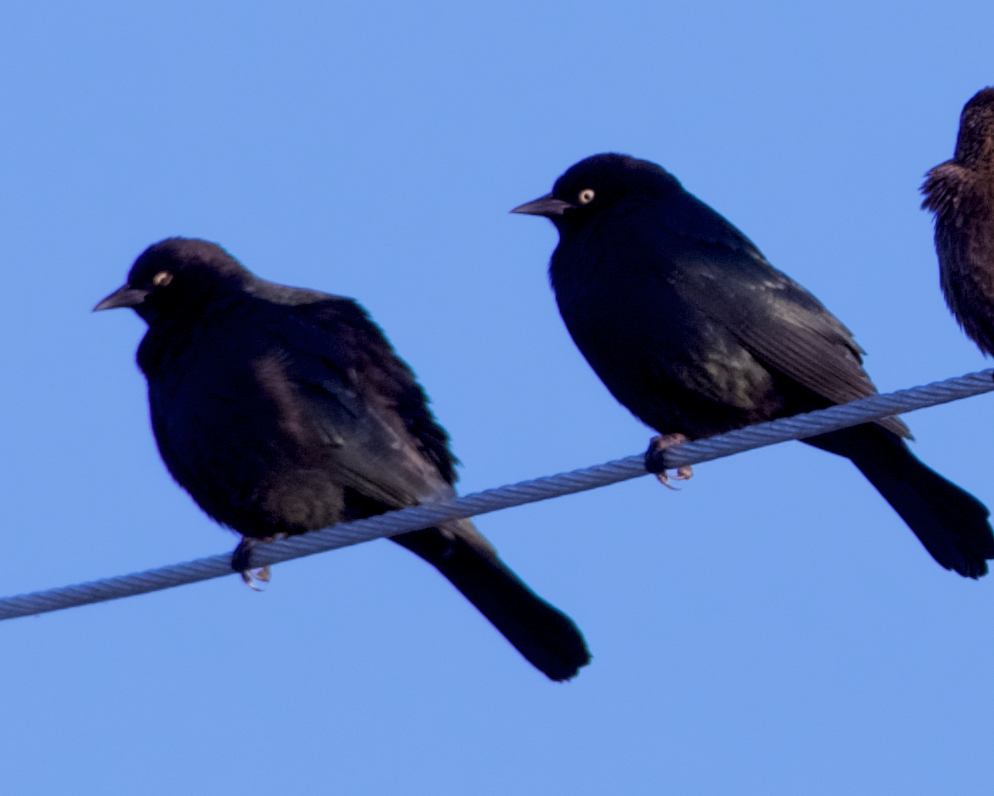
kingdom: Animalia
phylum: Chordata
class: Aves
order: Passeriformes
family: Icteridae
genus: Euphagus
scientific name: Euphagus cyanocephalus
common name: Brewer's blackbird
